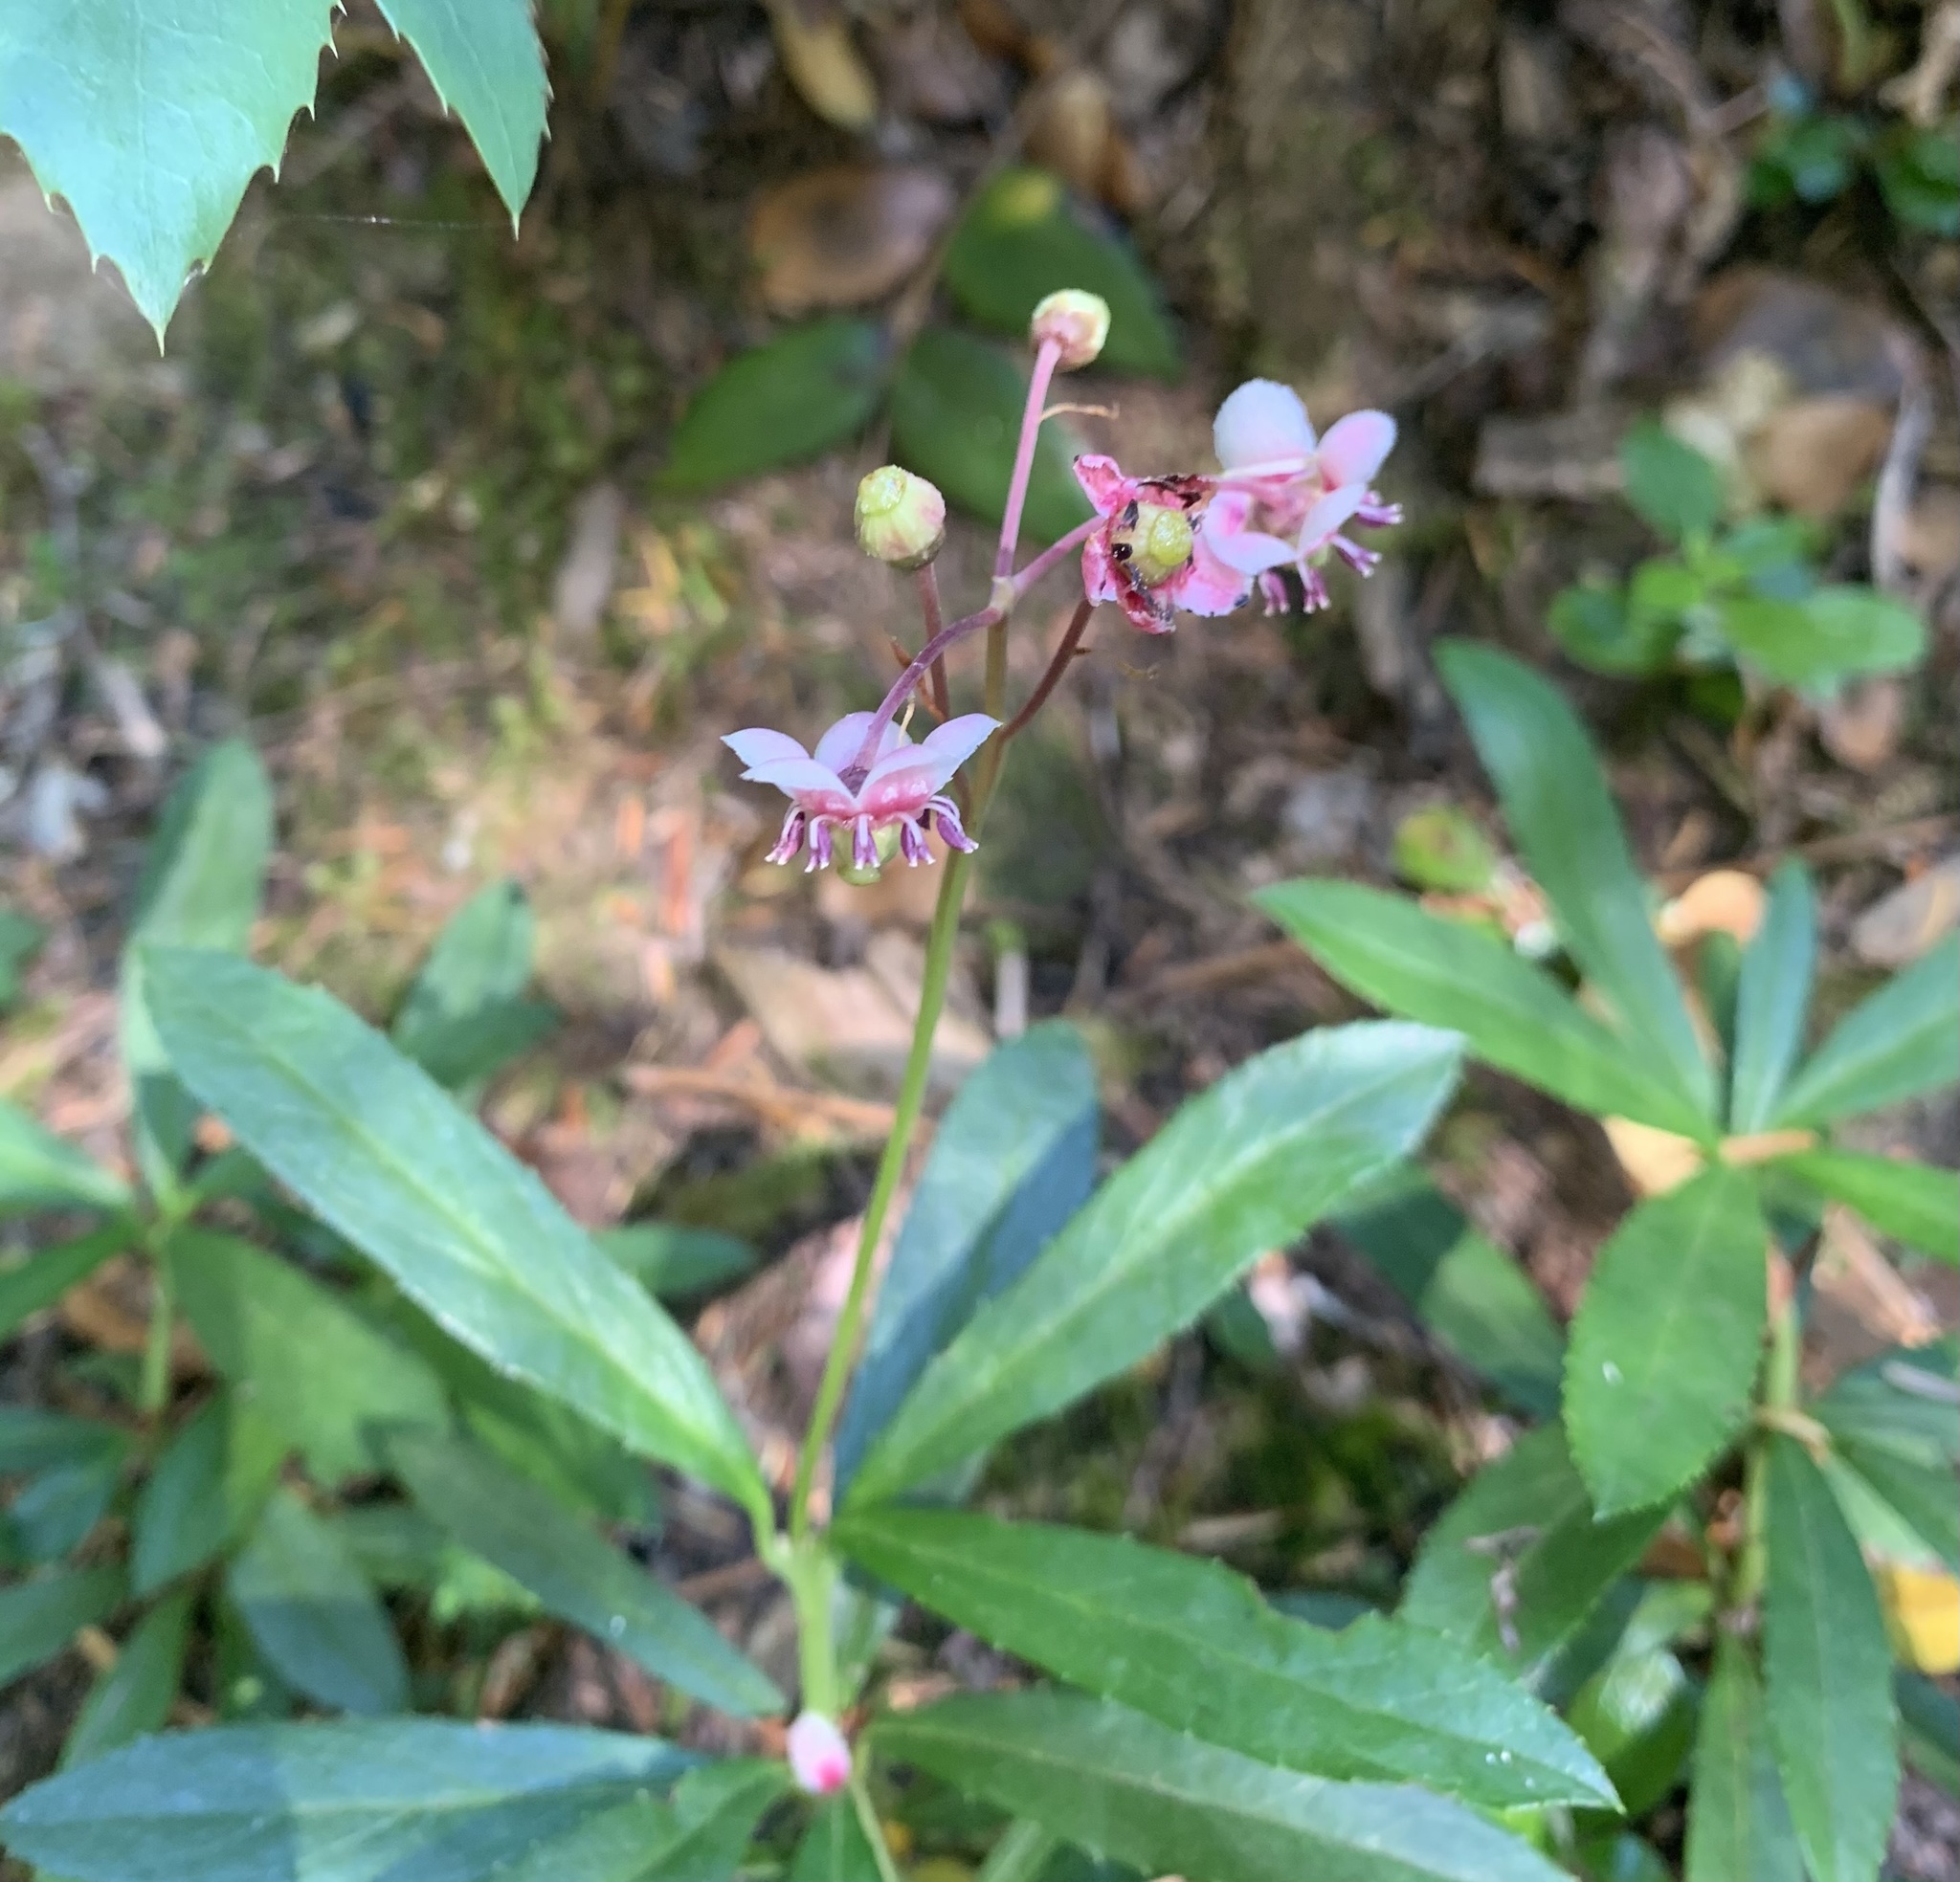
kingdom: Plantae
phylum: Tracheophyta
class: Magnoliopsida
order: Ericales
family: Ericaceae
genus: Chimaphila
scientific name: Chimaphila umbellata
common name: Pipsissewa
